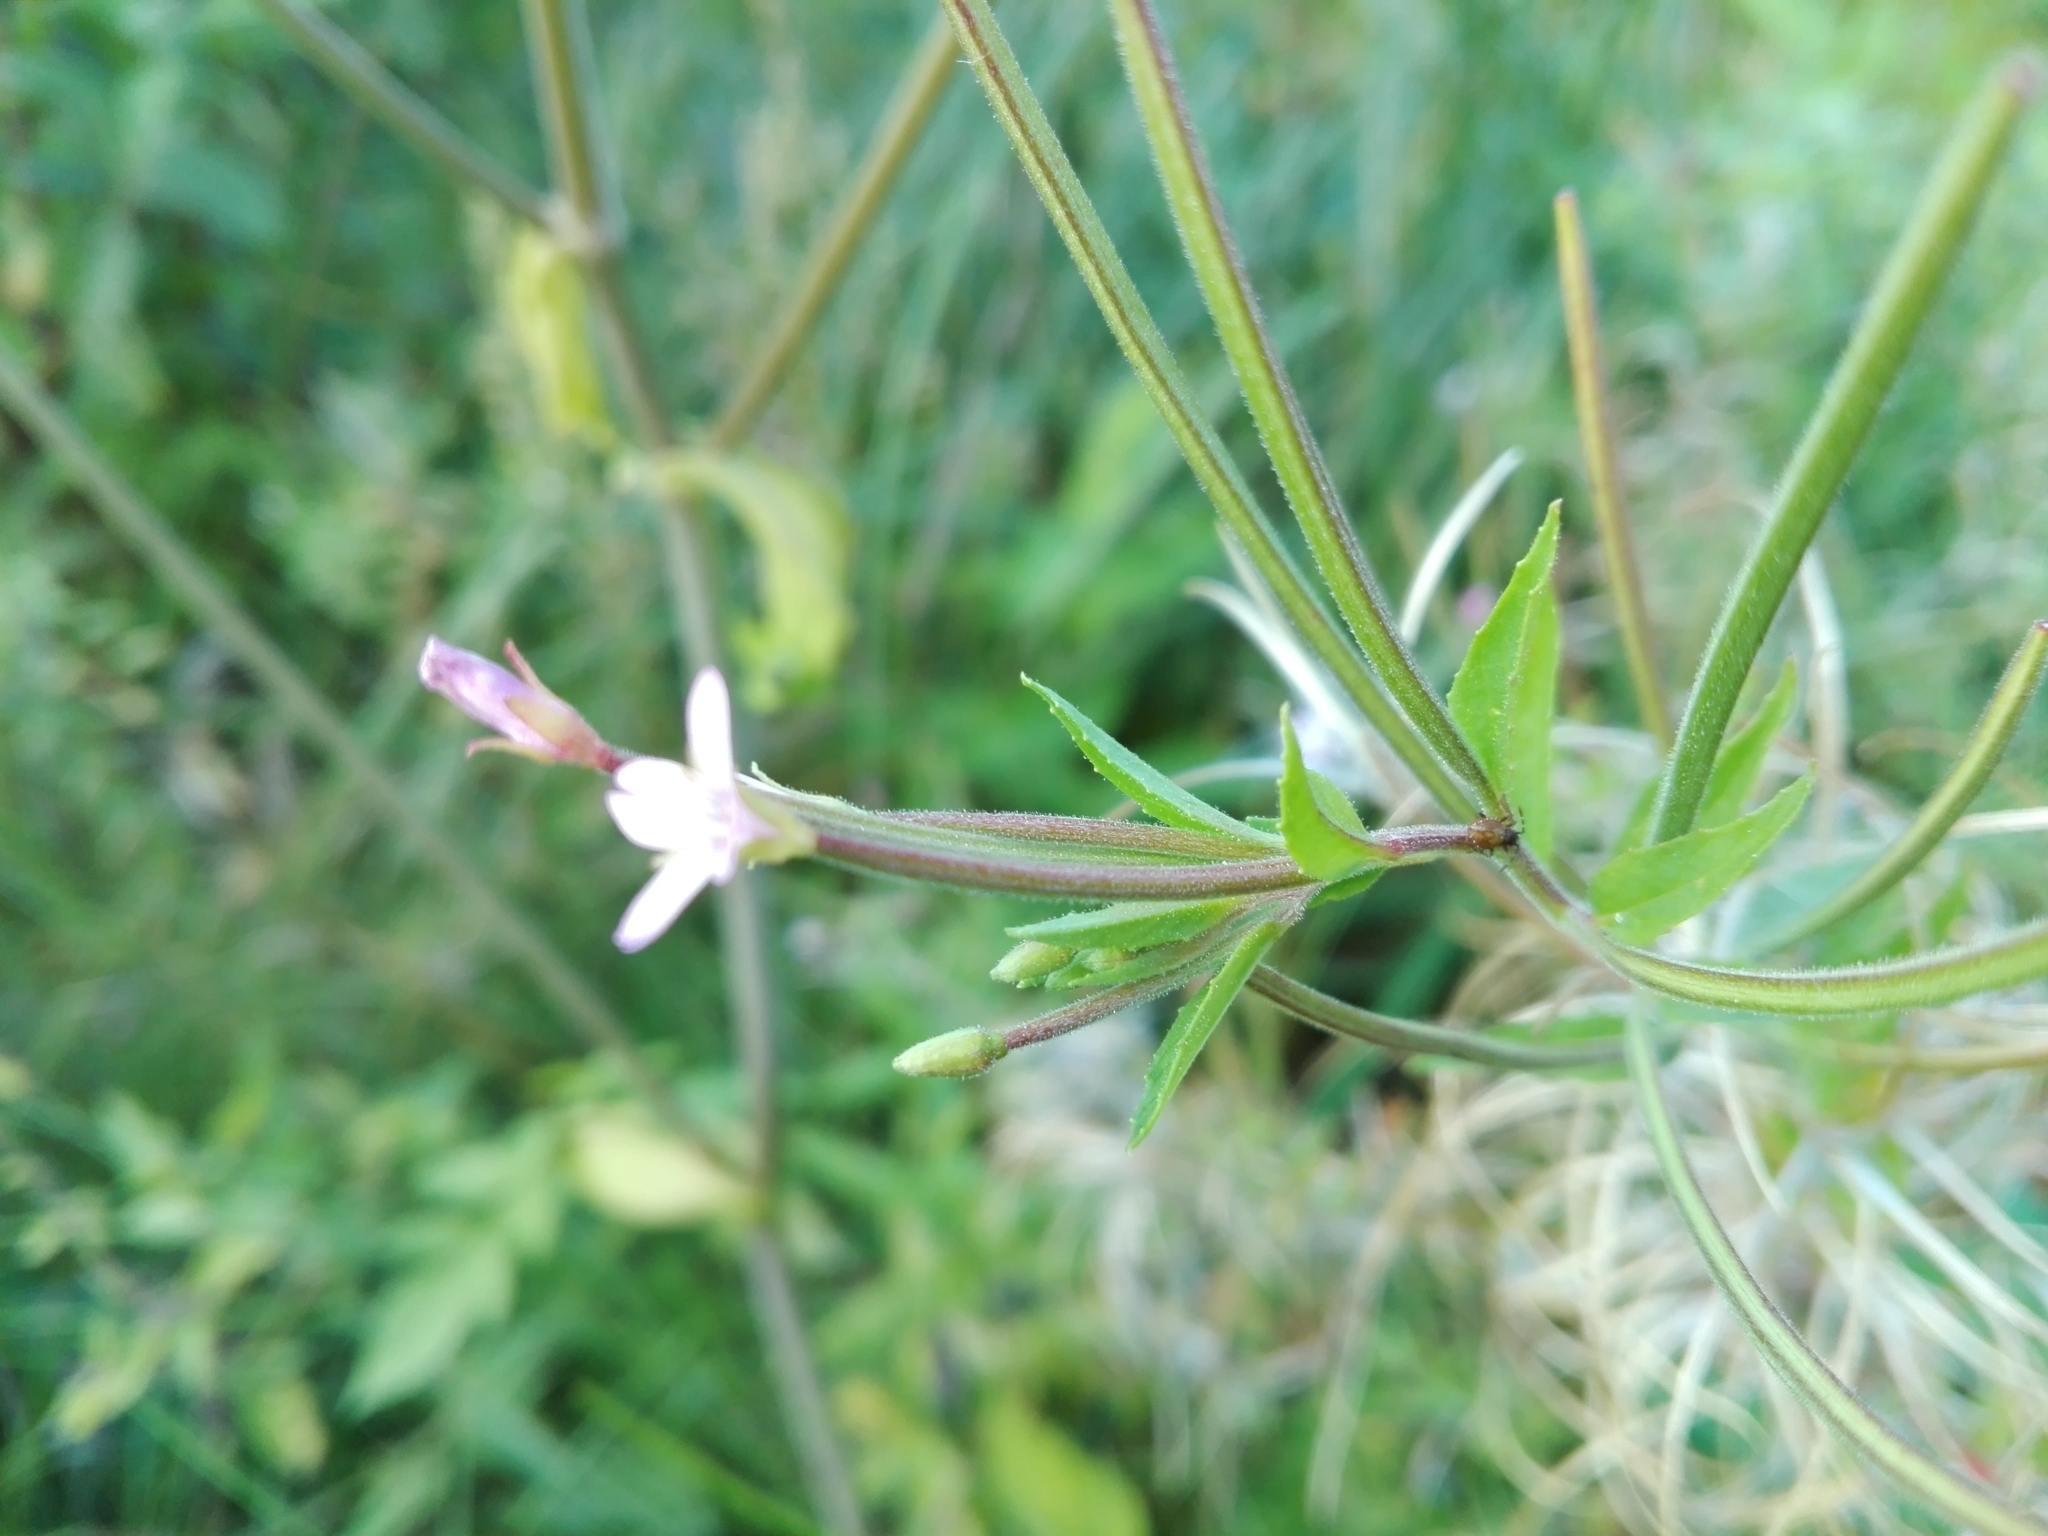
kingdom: Plantae
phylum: Tracheophyta
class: Magnoliopsida
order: Myrtales
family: Onagraceae
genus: Epilobium
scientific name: Epilobium ciliatum
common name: American willowherb
